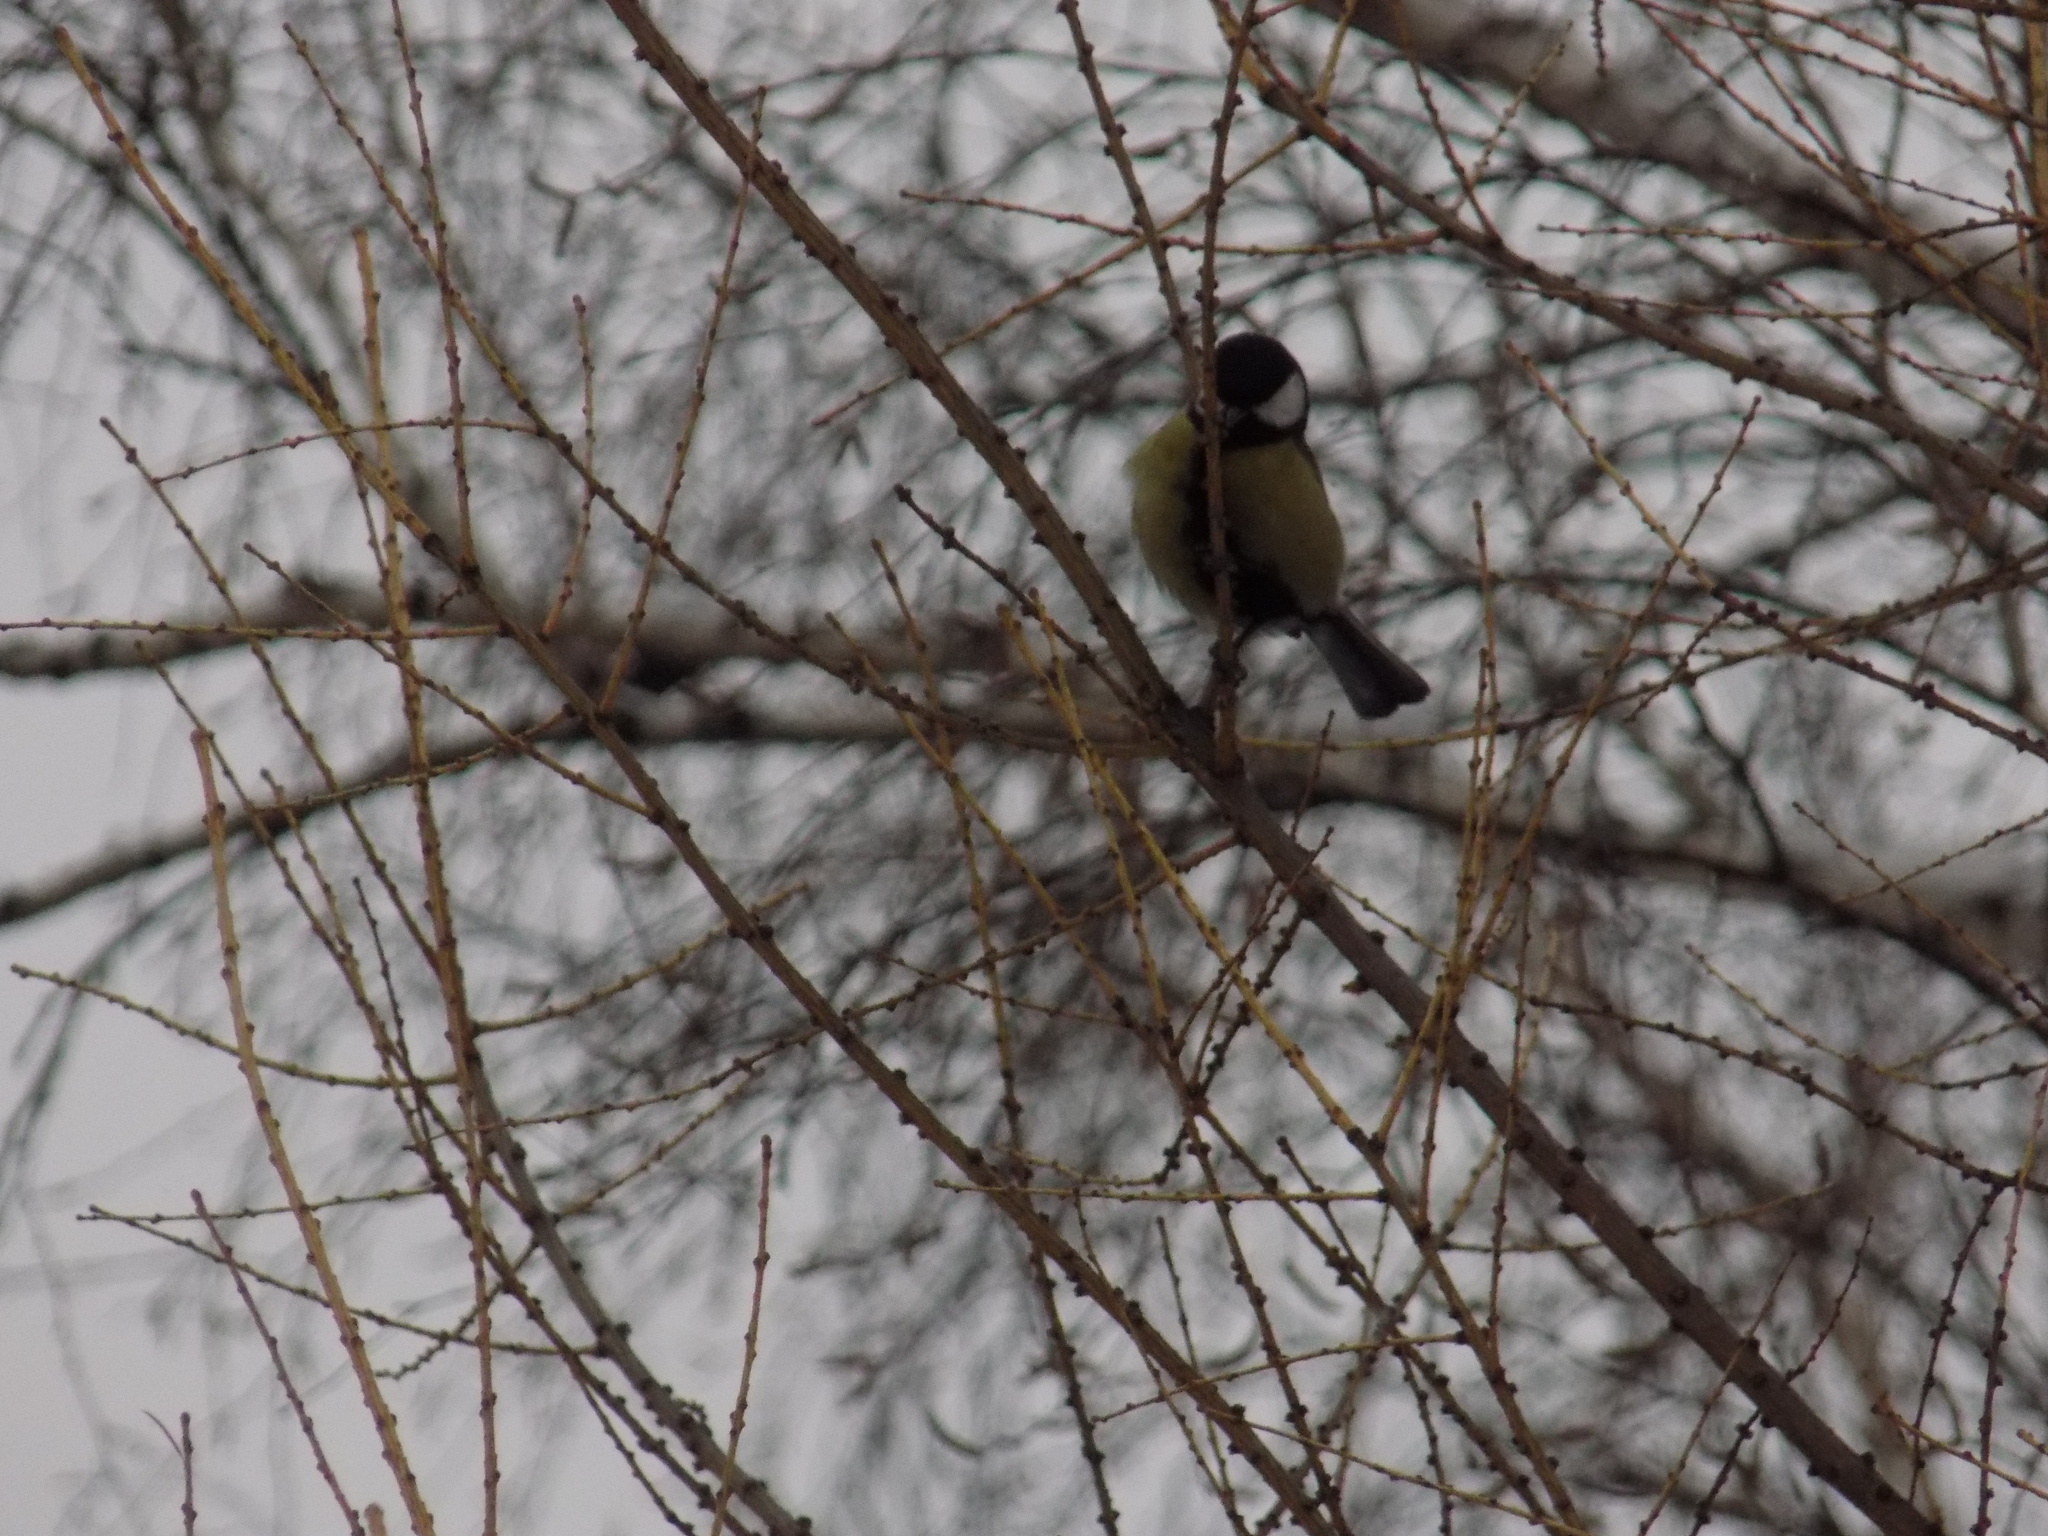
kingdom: Animalia
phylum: Chordata
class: Aves
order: Passeriformes
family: Paridae
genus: Parus
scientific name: Parus major
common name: Great tit
